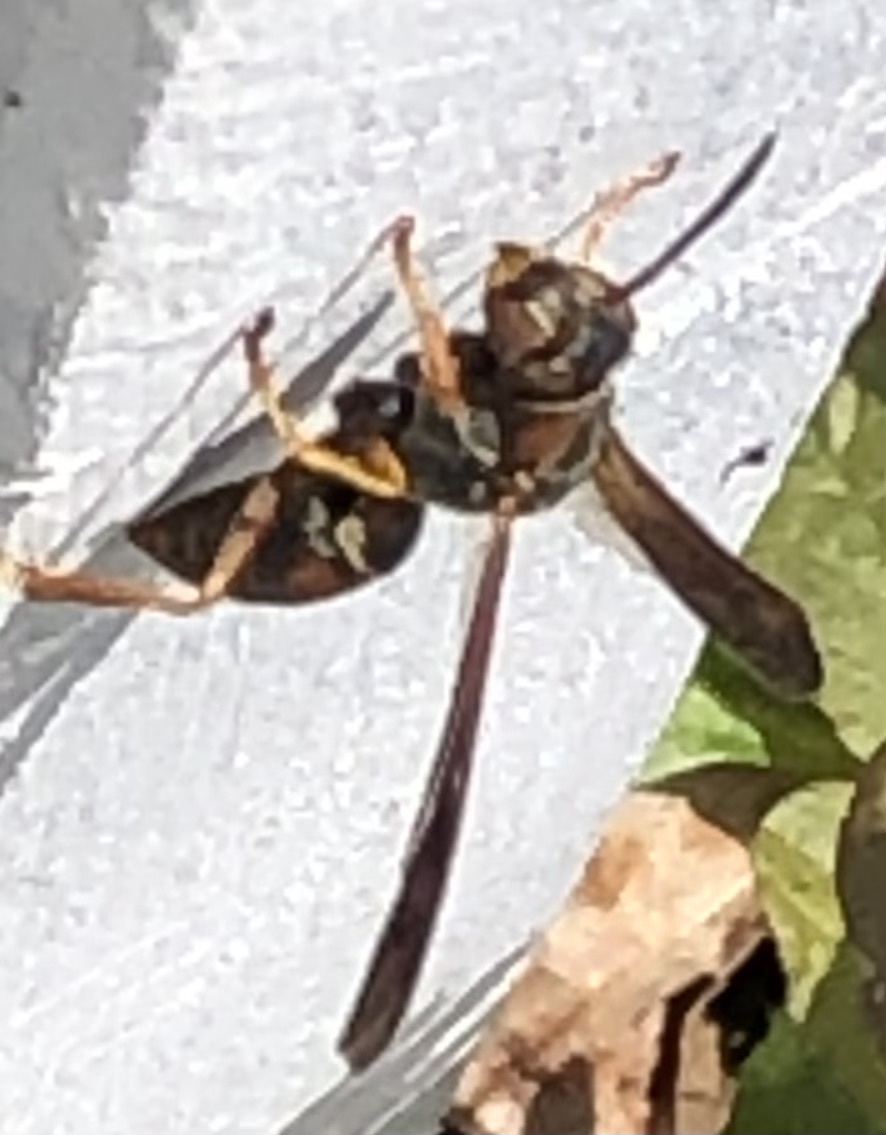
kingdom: Animalia
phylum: Arthropoda
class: Insecta
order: Hymenoptera
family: Eumenidae
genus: Polistes
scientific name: Polistes fuscatus
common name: Dark paper wasp
